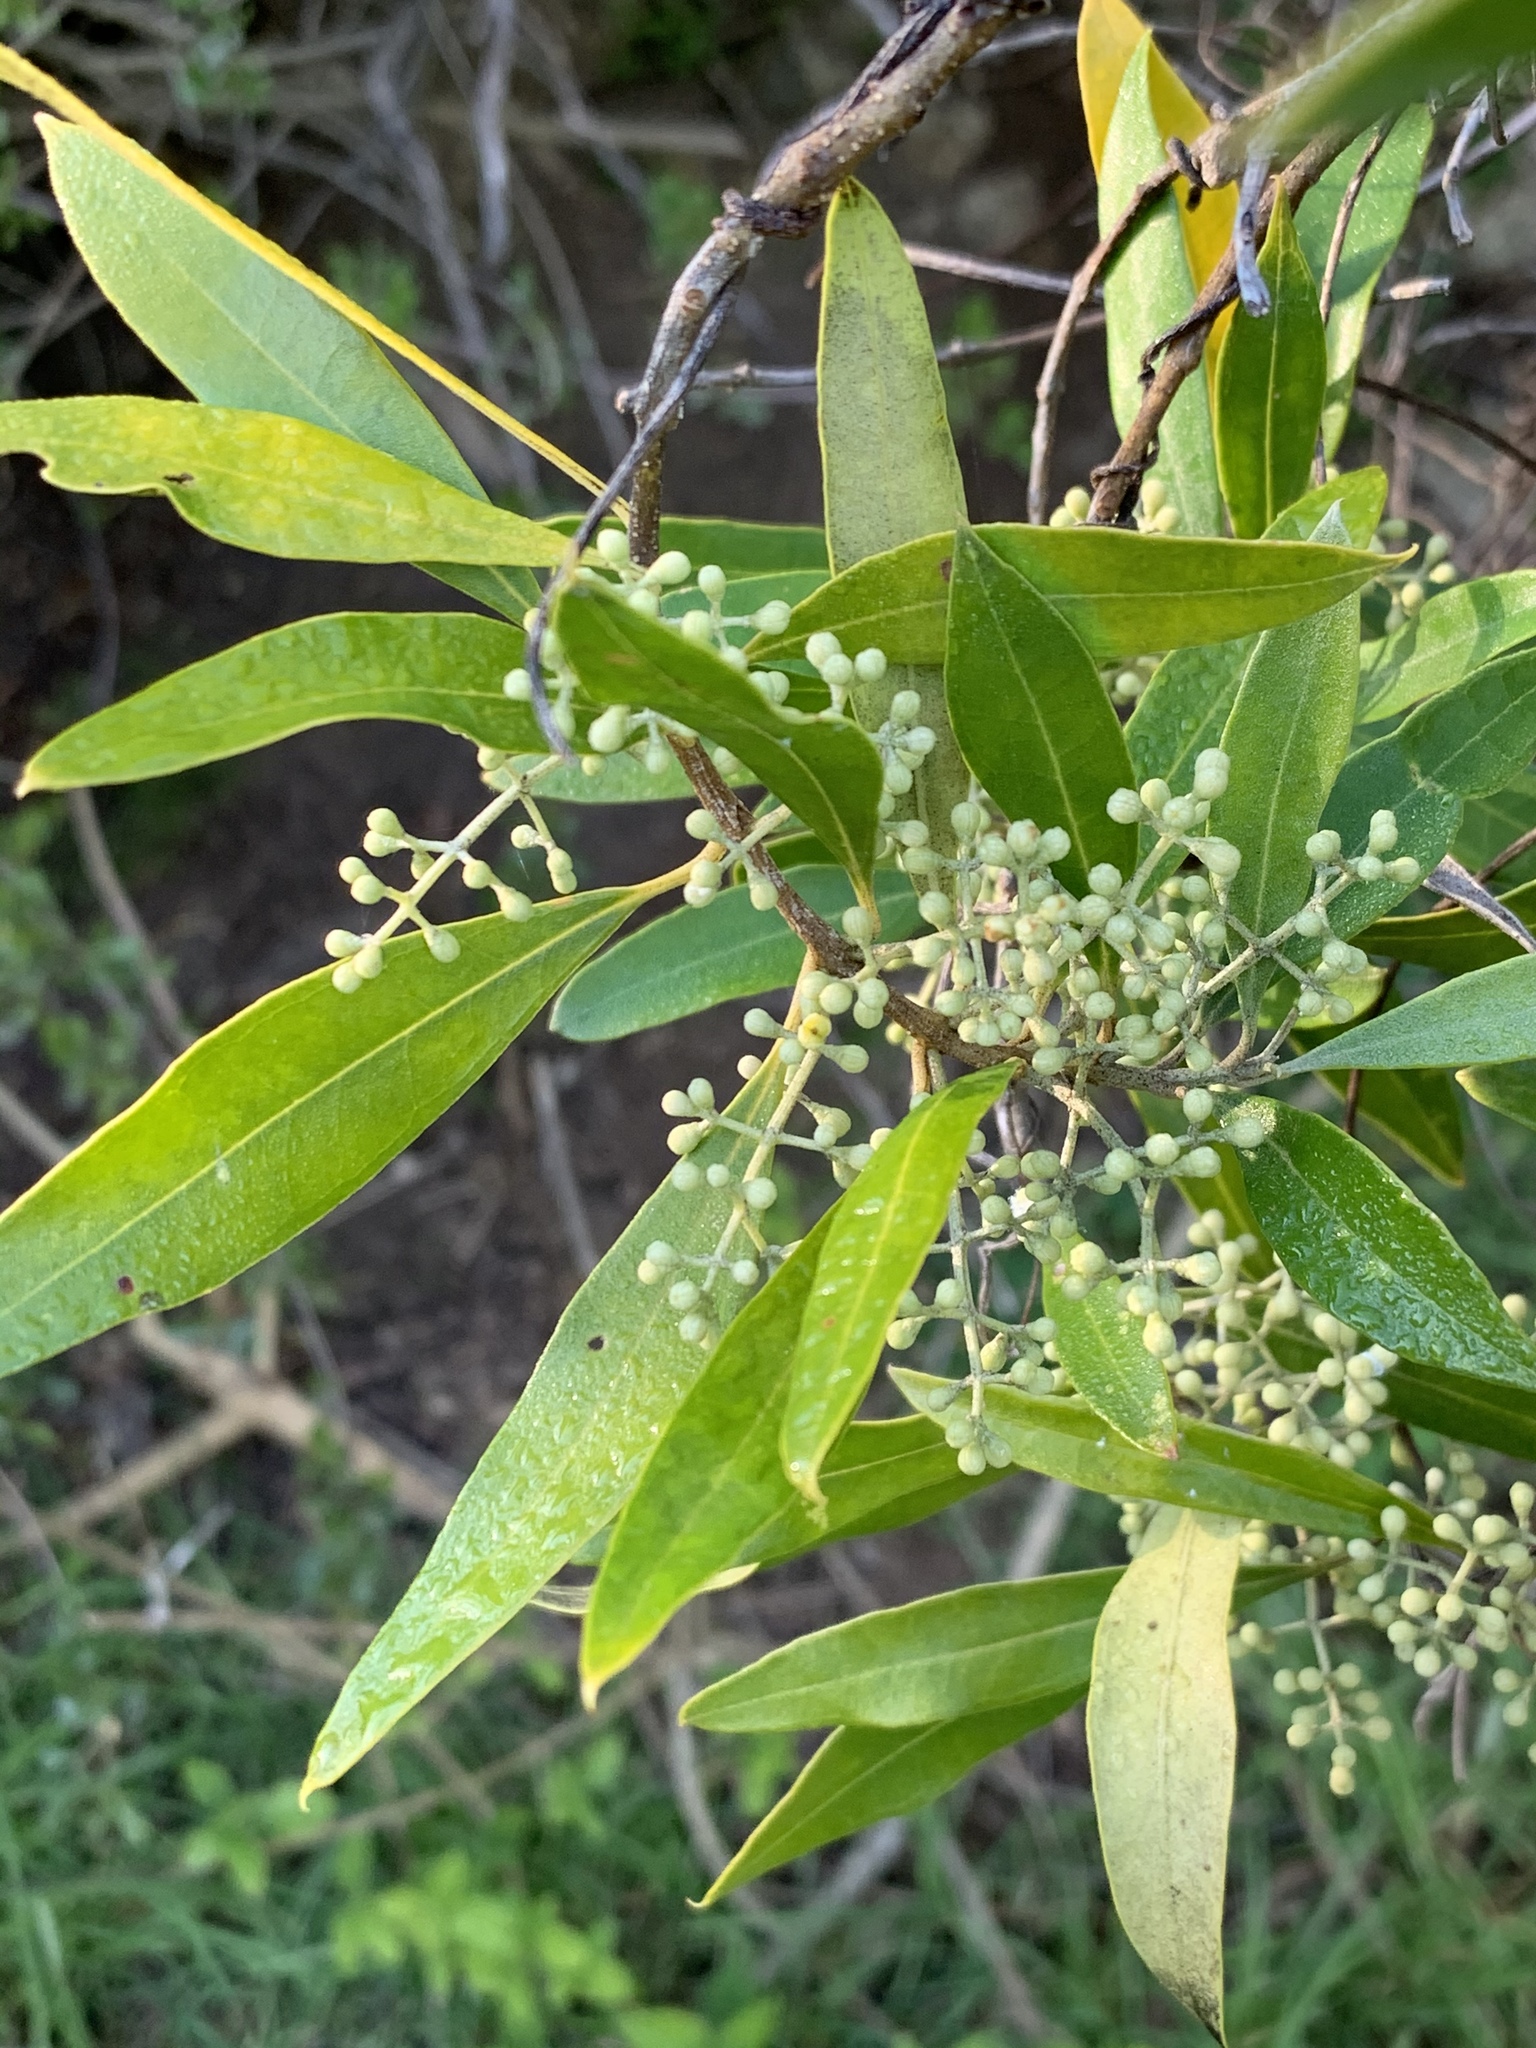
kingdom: Plantae
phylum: Tracheophyta
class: Magnoliopsida
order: Lamiales
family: Oleaceae
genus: Olea
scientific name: Olea europaea
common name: Olive
